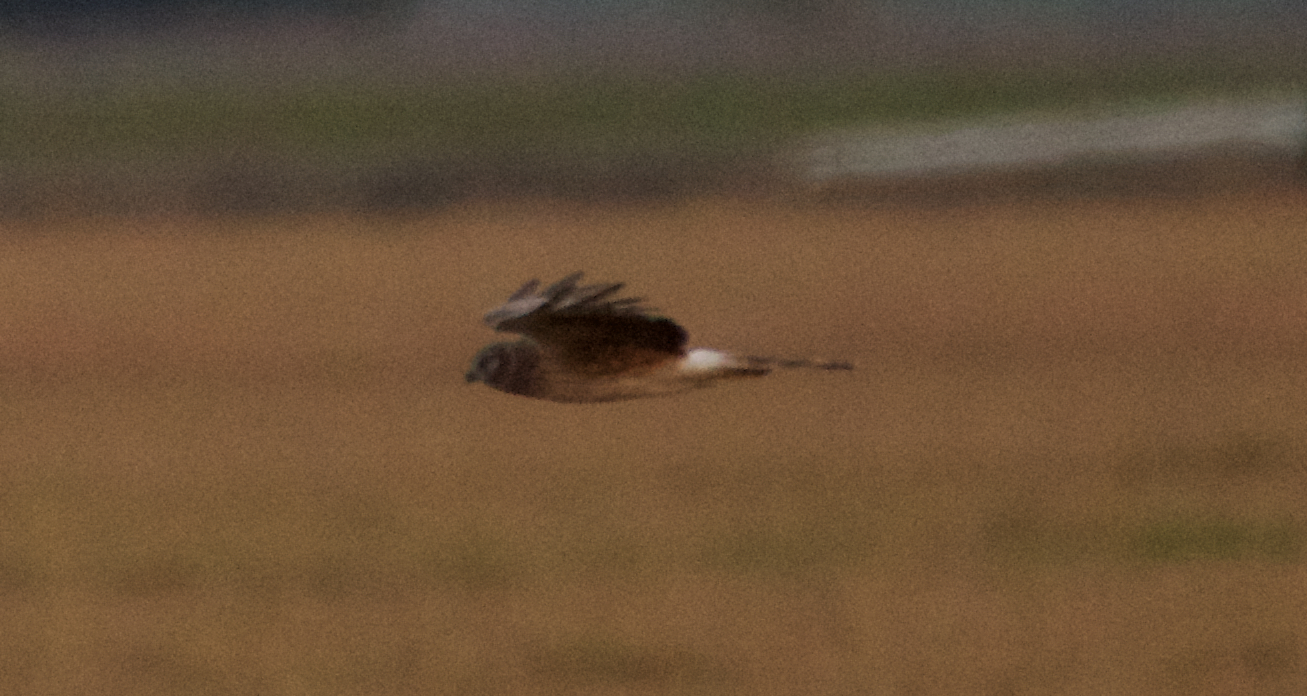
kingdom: Animalia
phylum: Chordata
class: Aves
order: Accipitriformes
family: Accipitridae
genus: Circus
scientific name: Circus cyaneus
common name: Hen harrier
